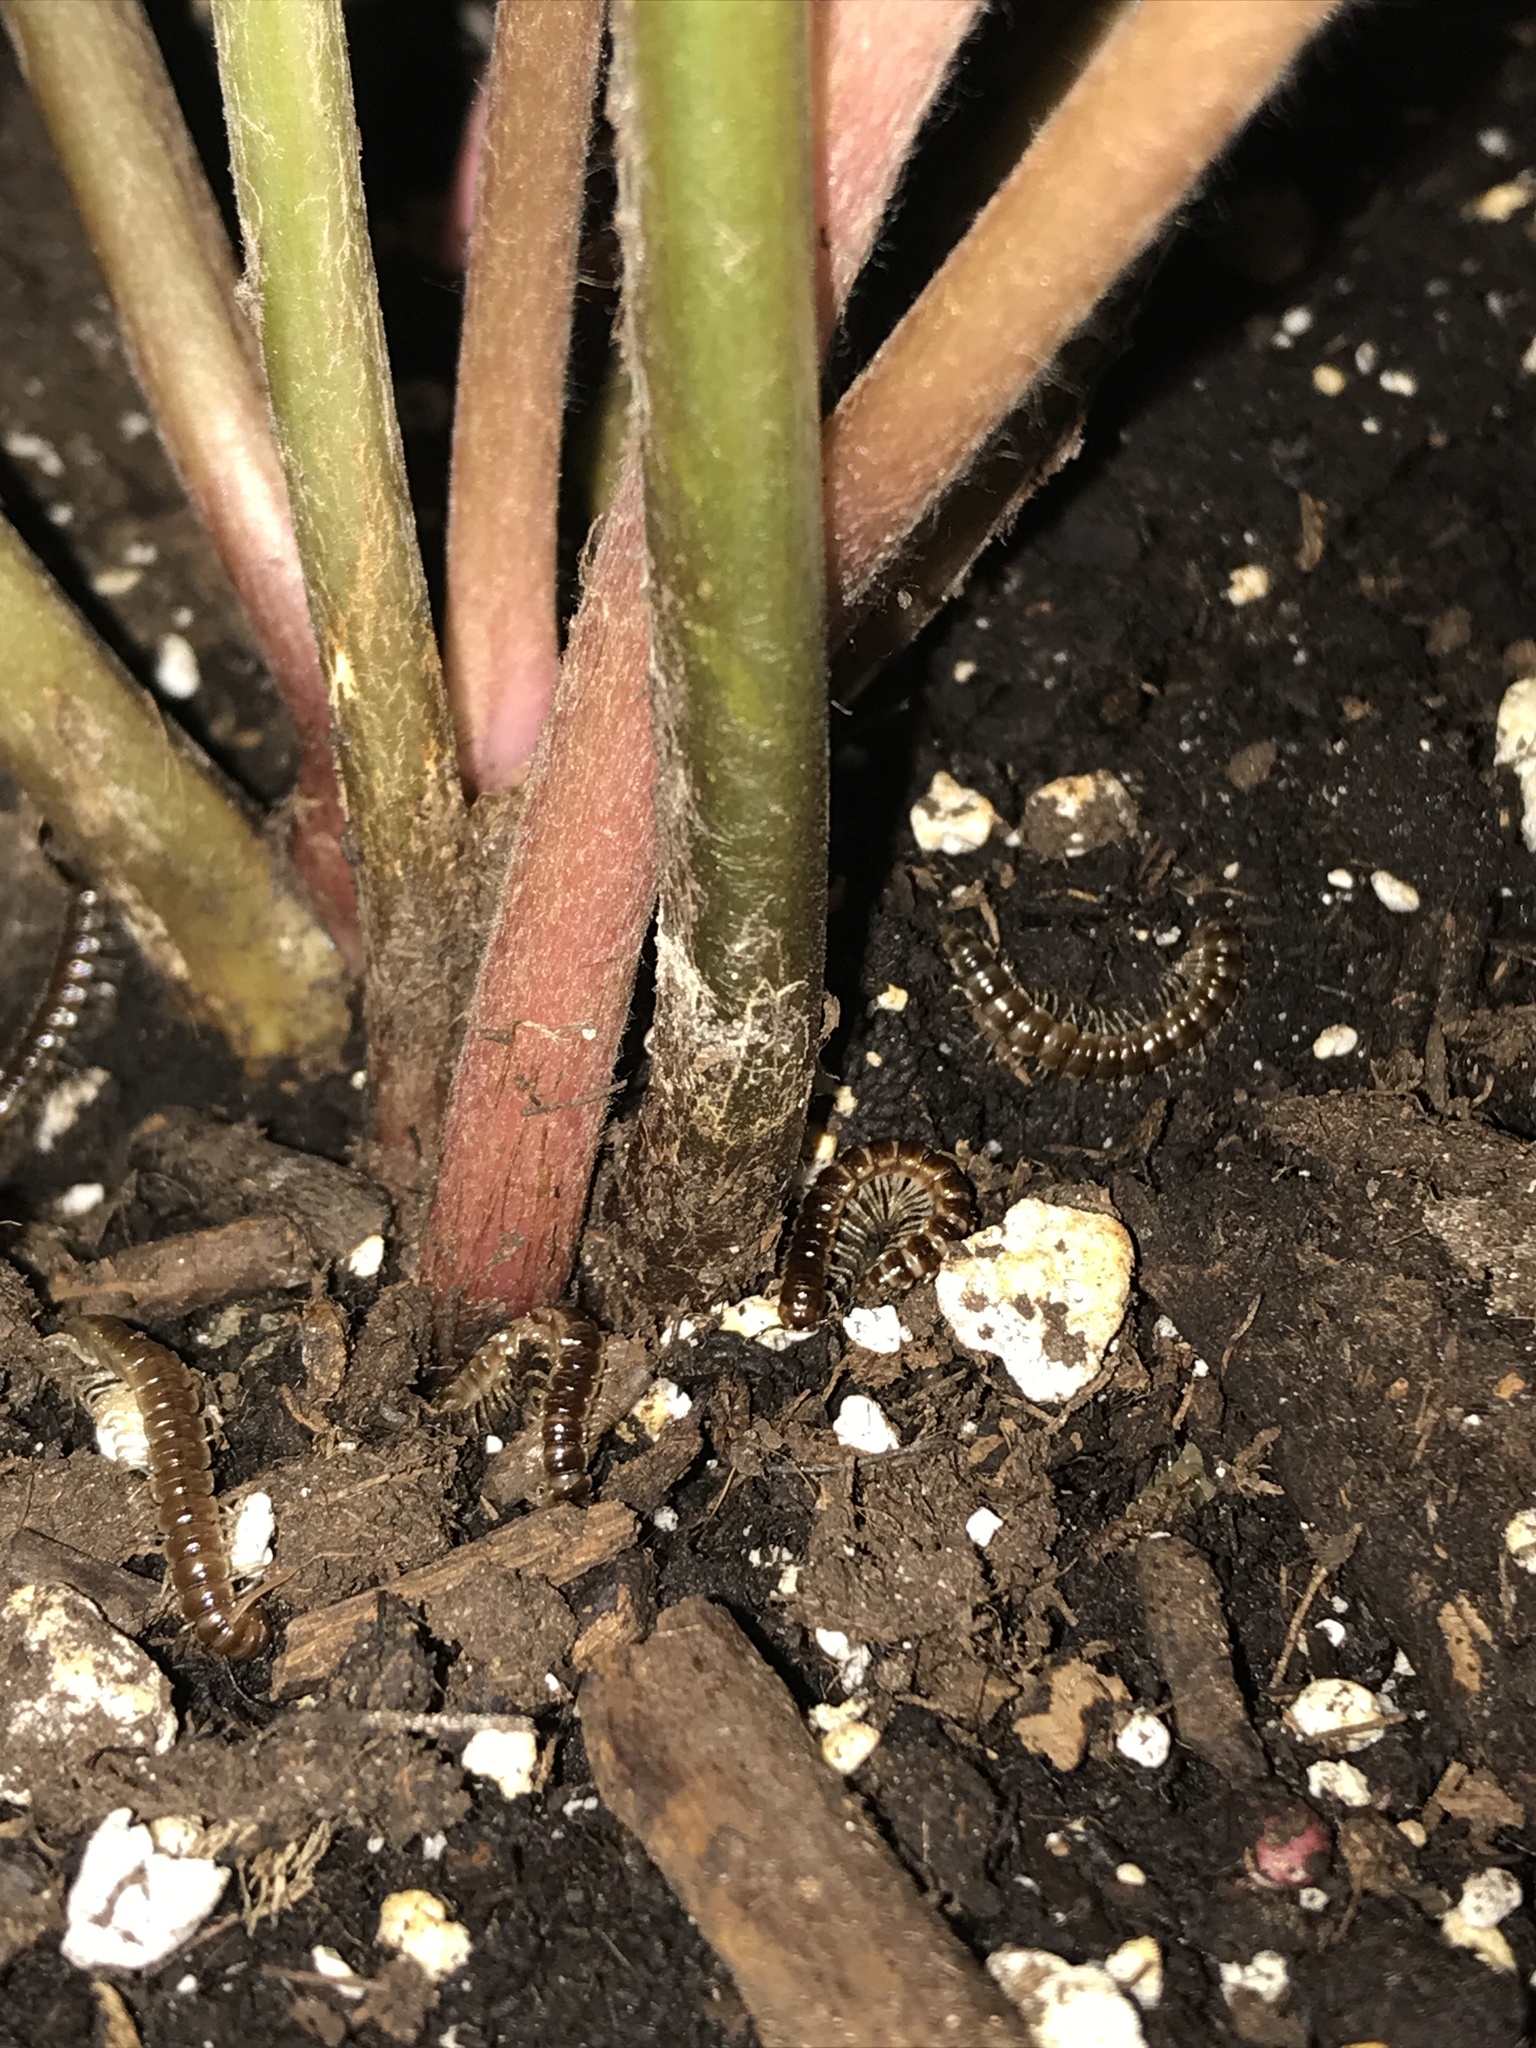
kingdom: Animalia
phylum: Arthropoda
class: Diplopoda
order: Polydesmida
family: Paradoxosomatidae
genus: Oxidus
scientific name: Oxidus gracilis
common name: Greenhouse millipede
